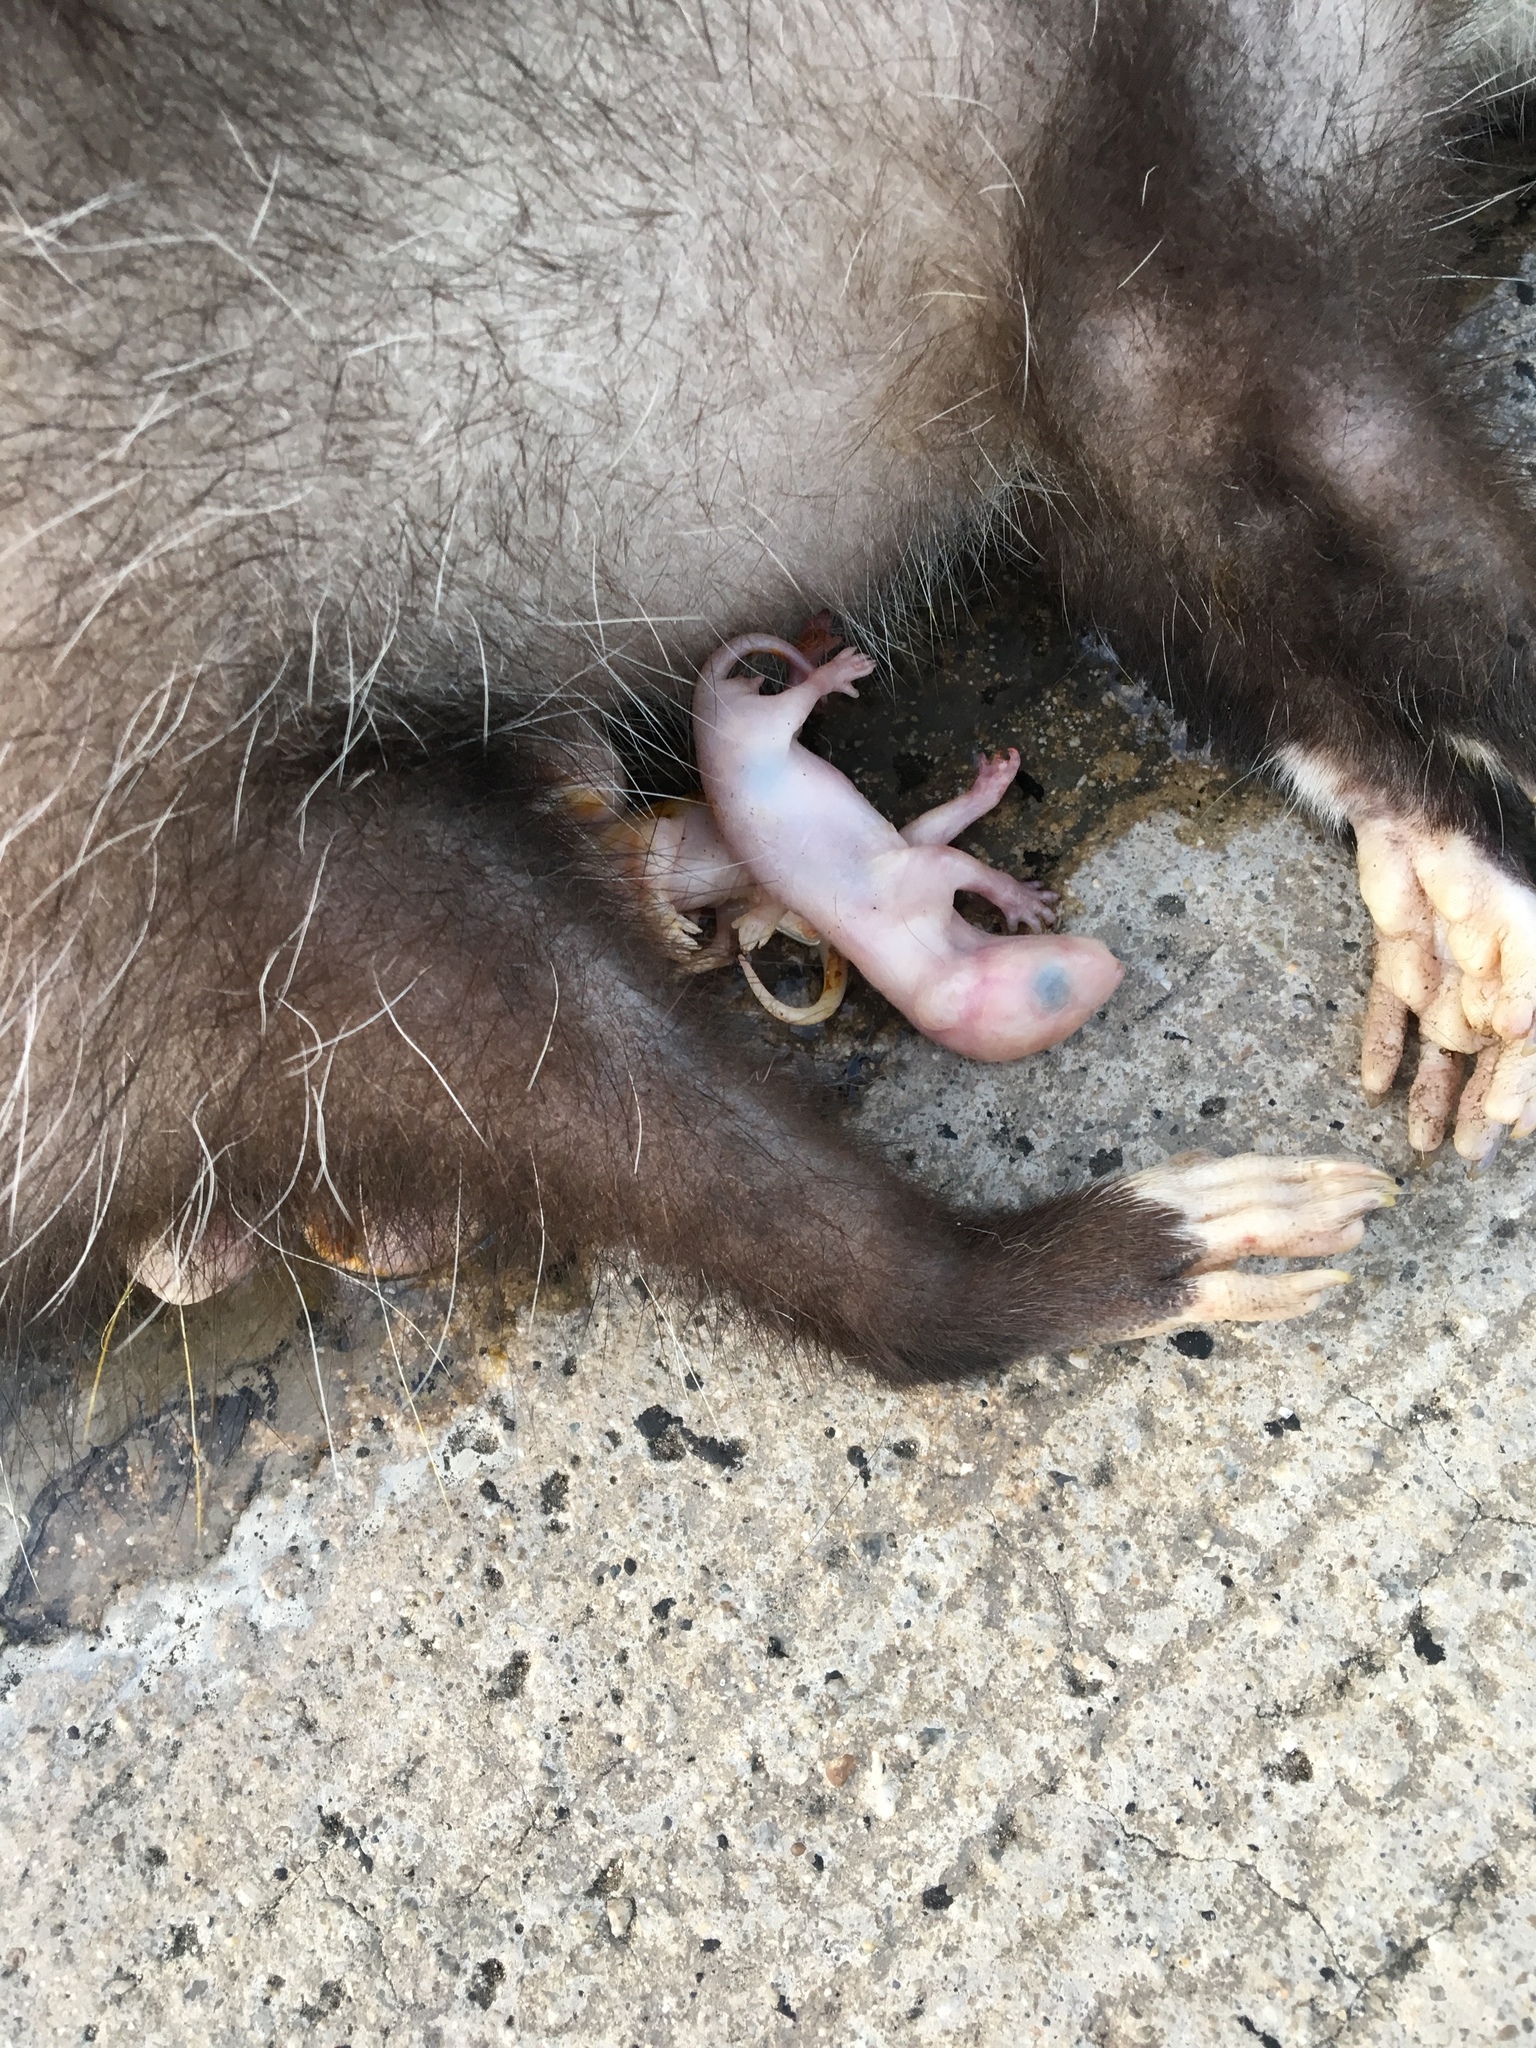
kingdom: Animalia
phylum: Chordata
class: Mammalia
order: Didelphimorphia
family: Didelphidae
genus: Didelphis
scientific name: Didelphis virginiana
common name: Virginia opossum
